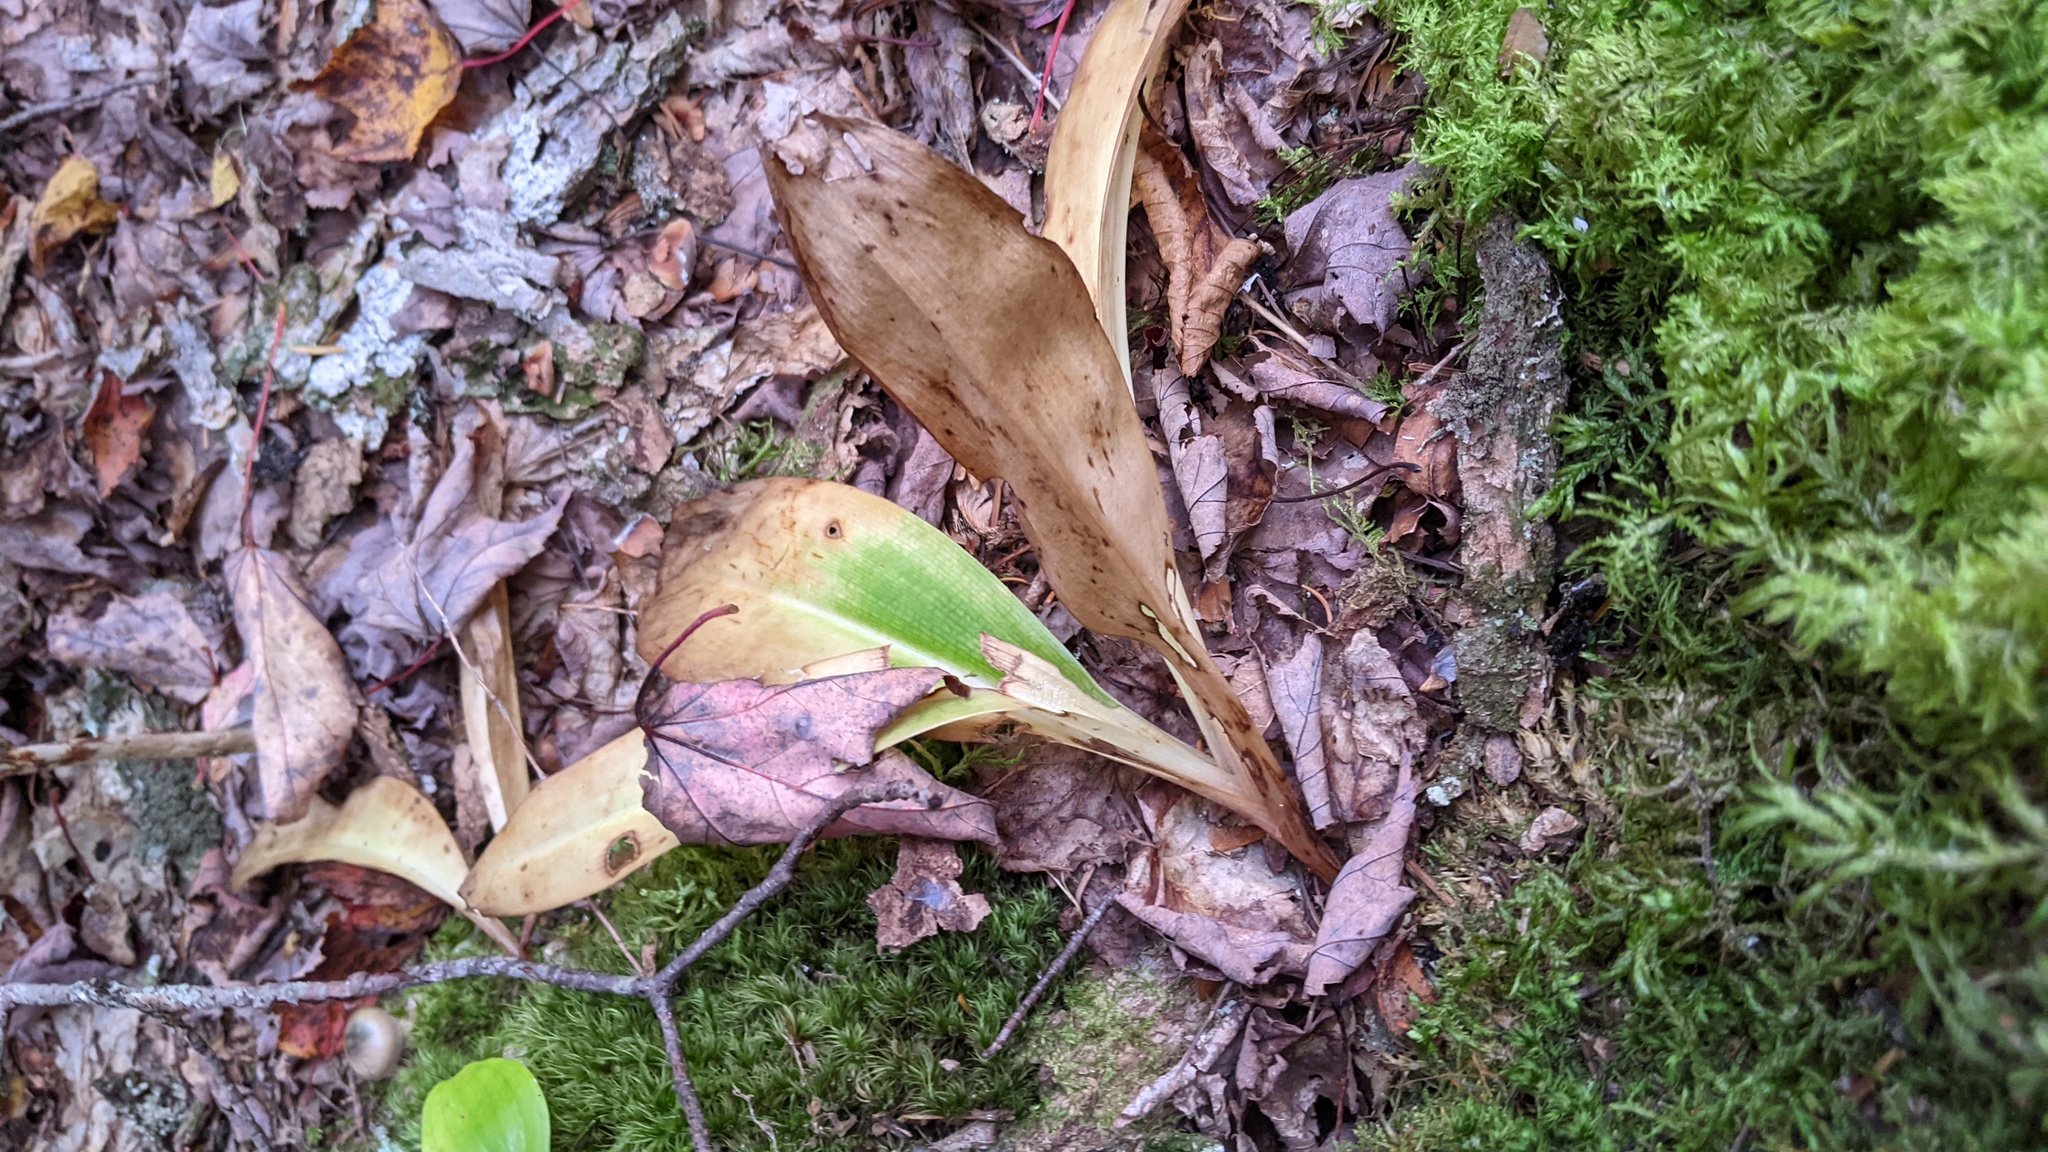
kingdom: Plantae
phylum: Tracheophyta
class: Liliopsida
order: Liliales
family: Liliaceae
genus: Clintonia
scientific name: Clintonia borealis
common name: Yellow clintonia
